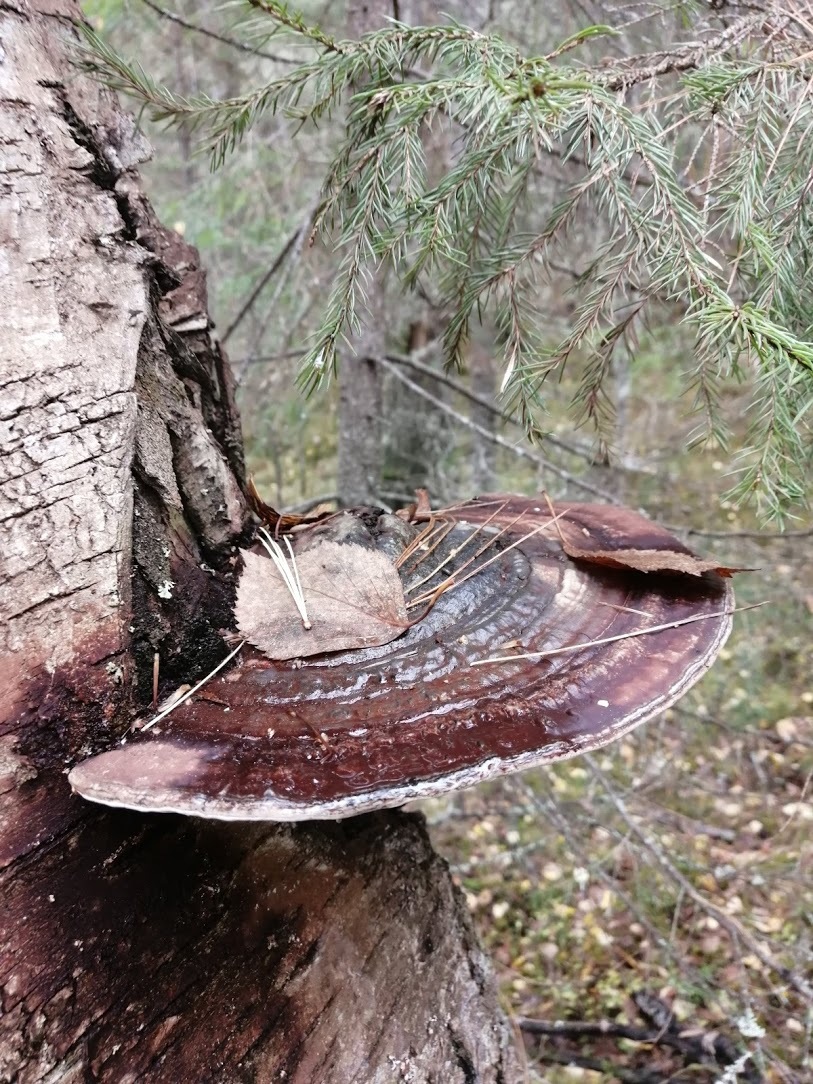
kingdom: Fungi
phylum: Basidiomycota
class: Agaricomycetes
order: Polyporales
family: Polyporaceae
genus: Ganoderma
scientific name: Ganoderma applanatum
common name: Artist's bracket
